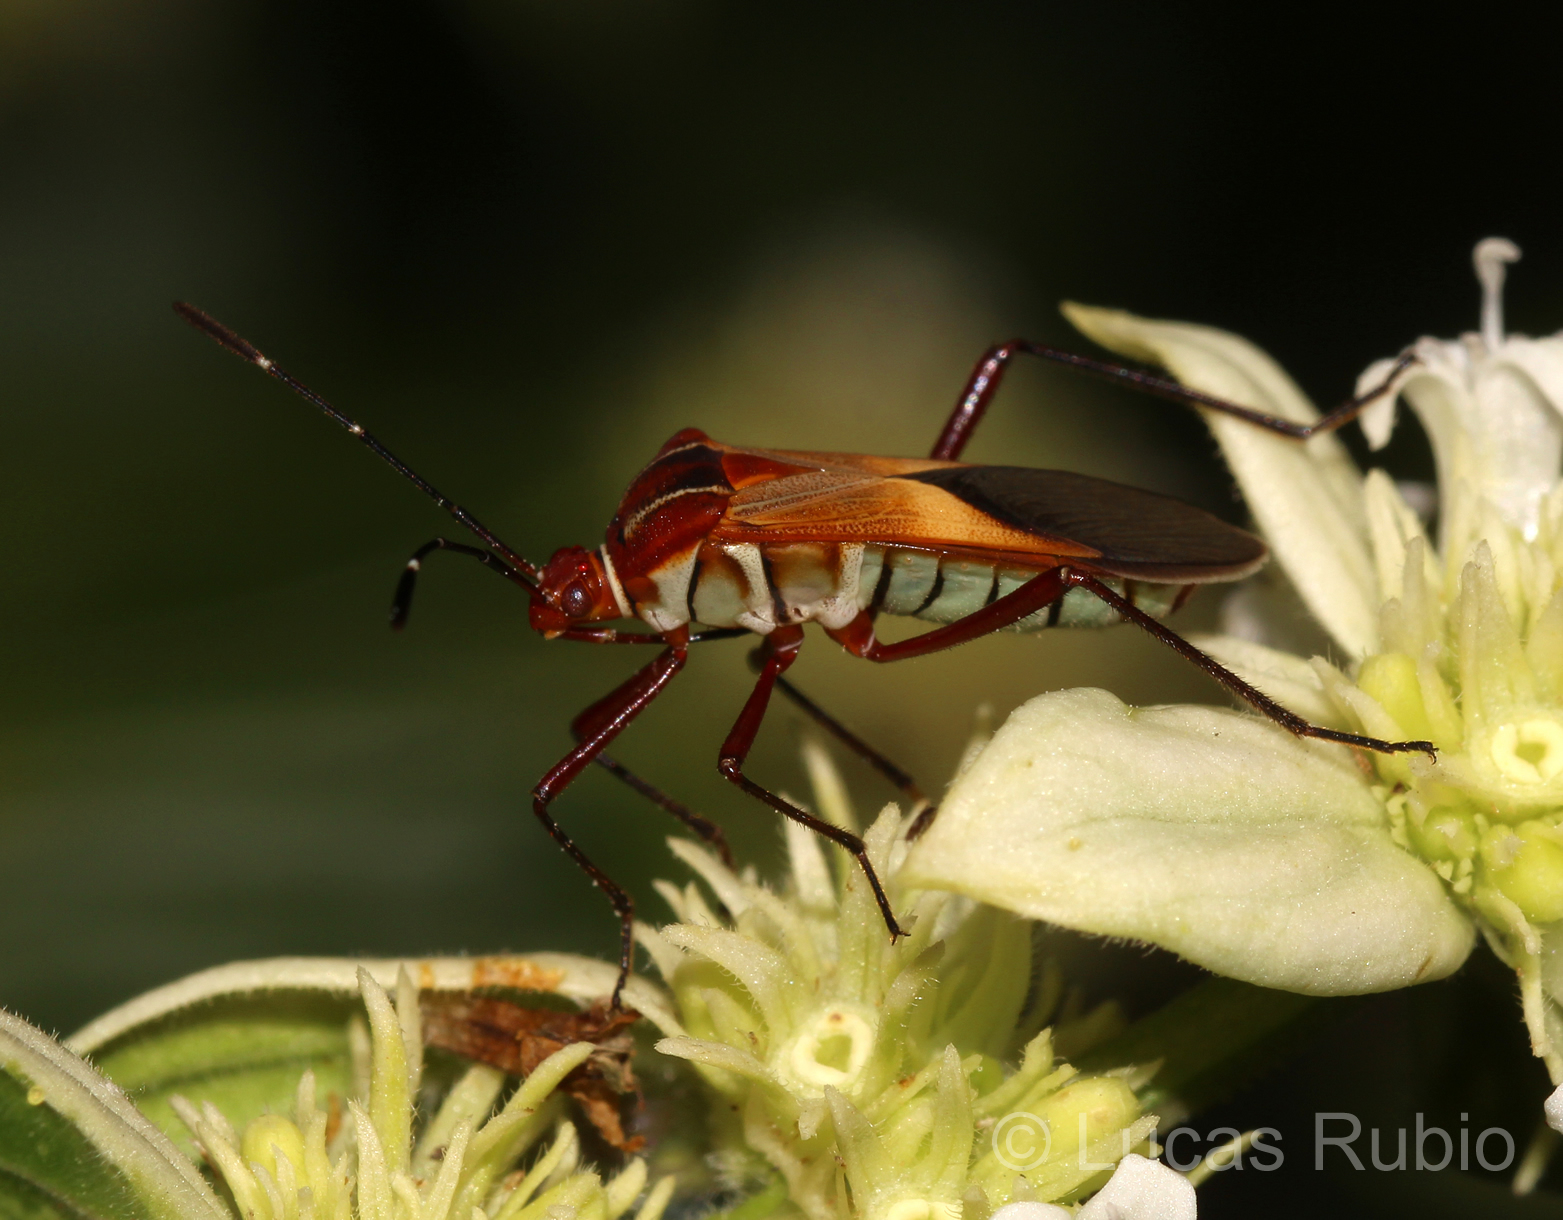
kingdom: Animalia
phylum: Arthropoda
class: Insecta
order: Hemiptera
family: Coreidae
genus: Hypselonotus
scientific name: Hypselonotus interruptus
